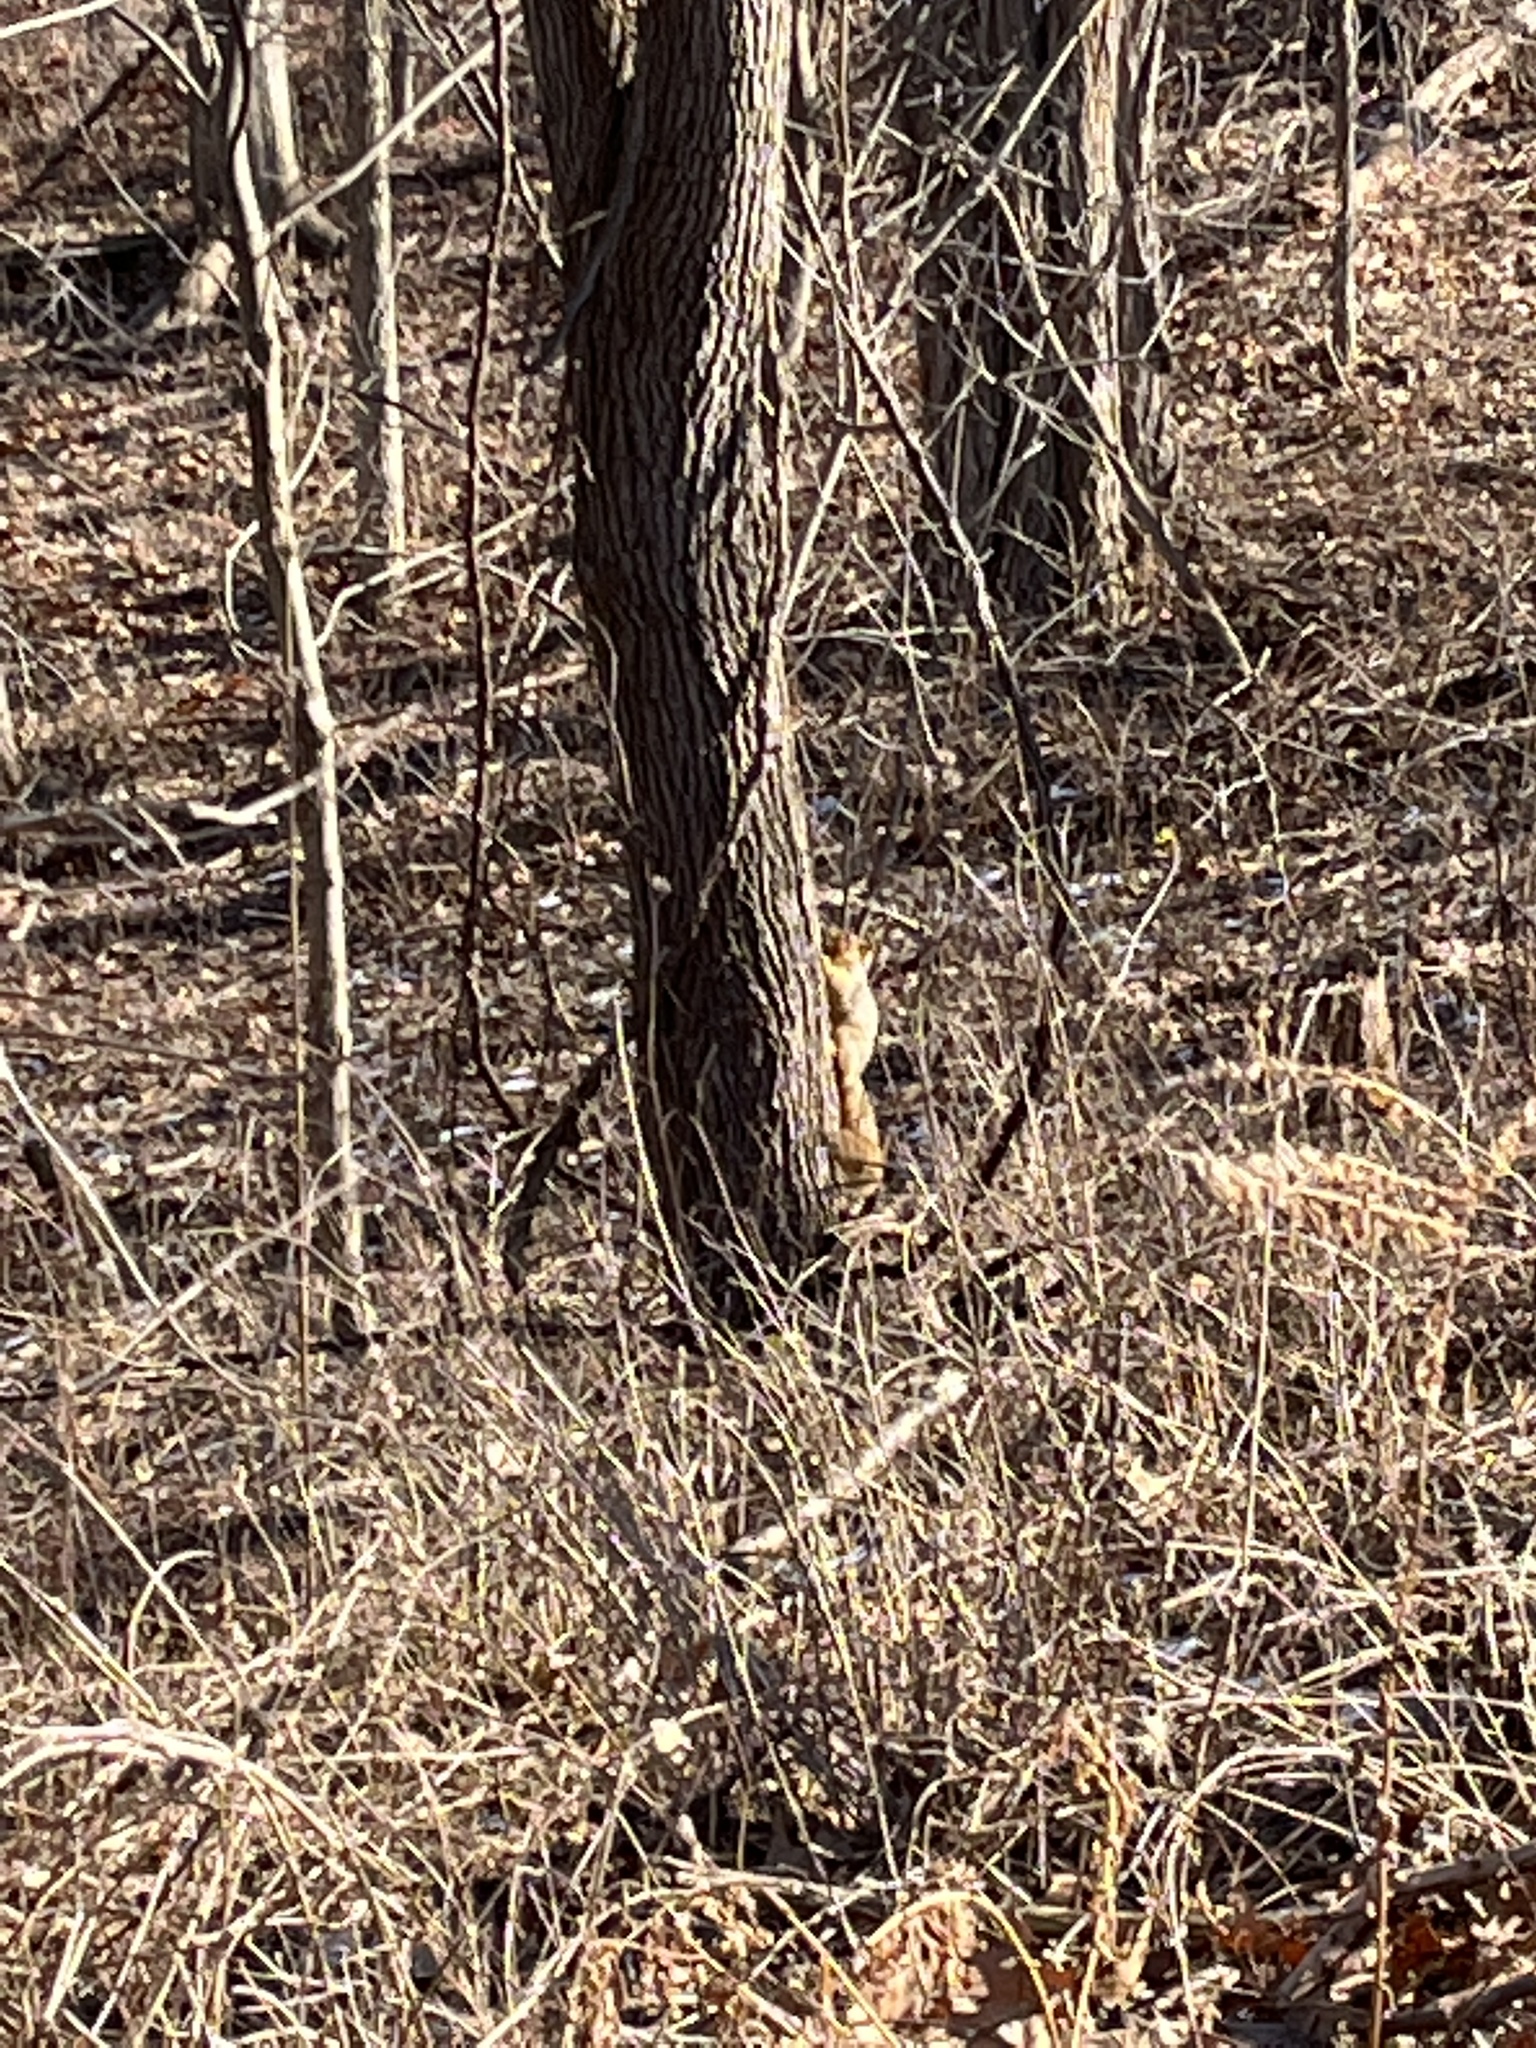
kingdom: Animalia
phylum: Chordata
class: Mammalia
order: Rodentia
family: Sciuridae
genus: Sciurus
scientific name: Sciurus niger
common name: Fox squirrel
